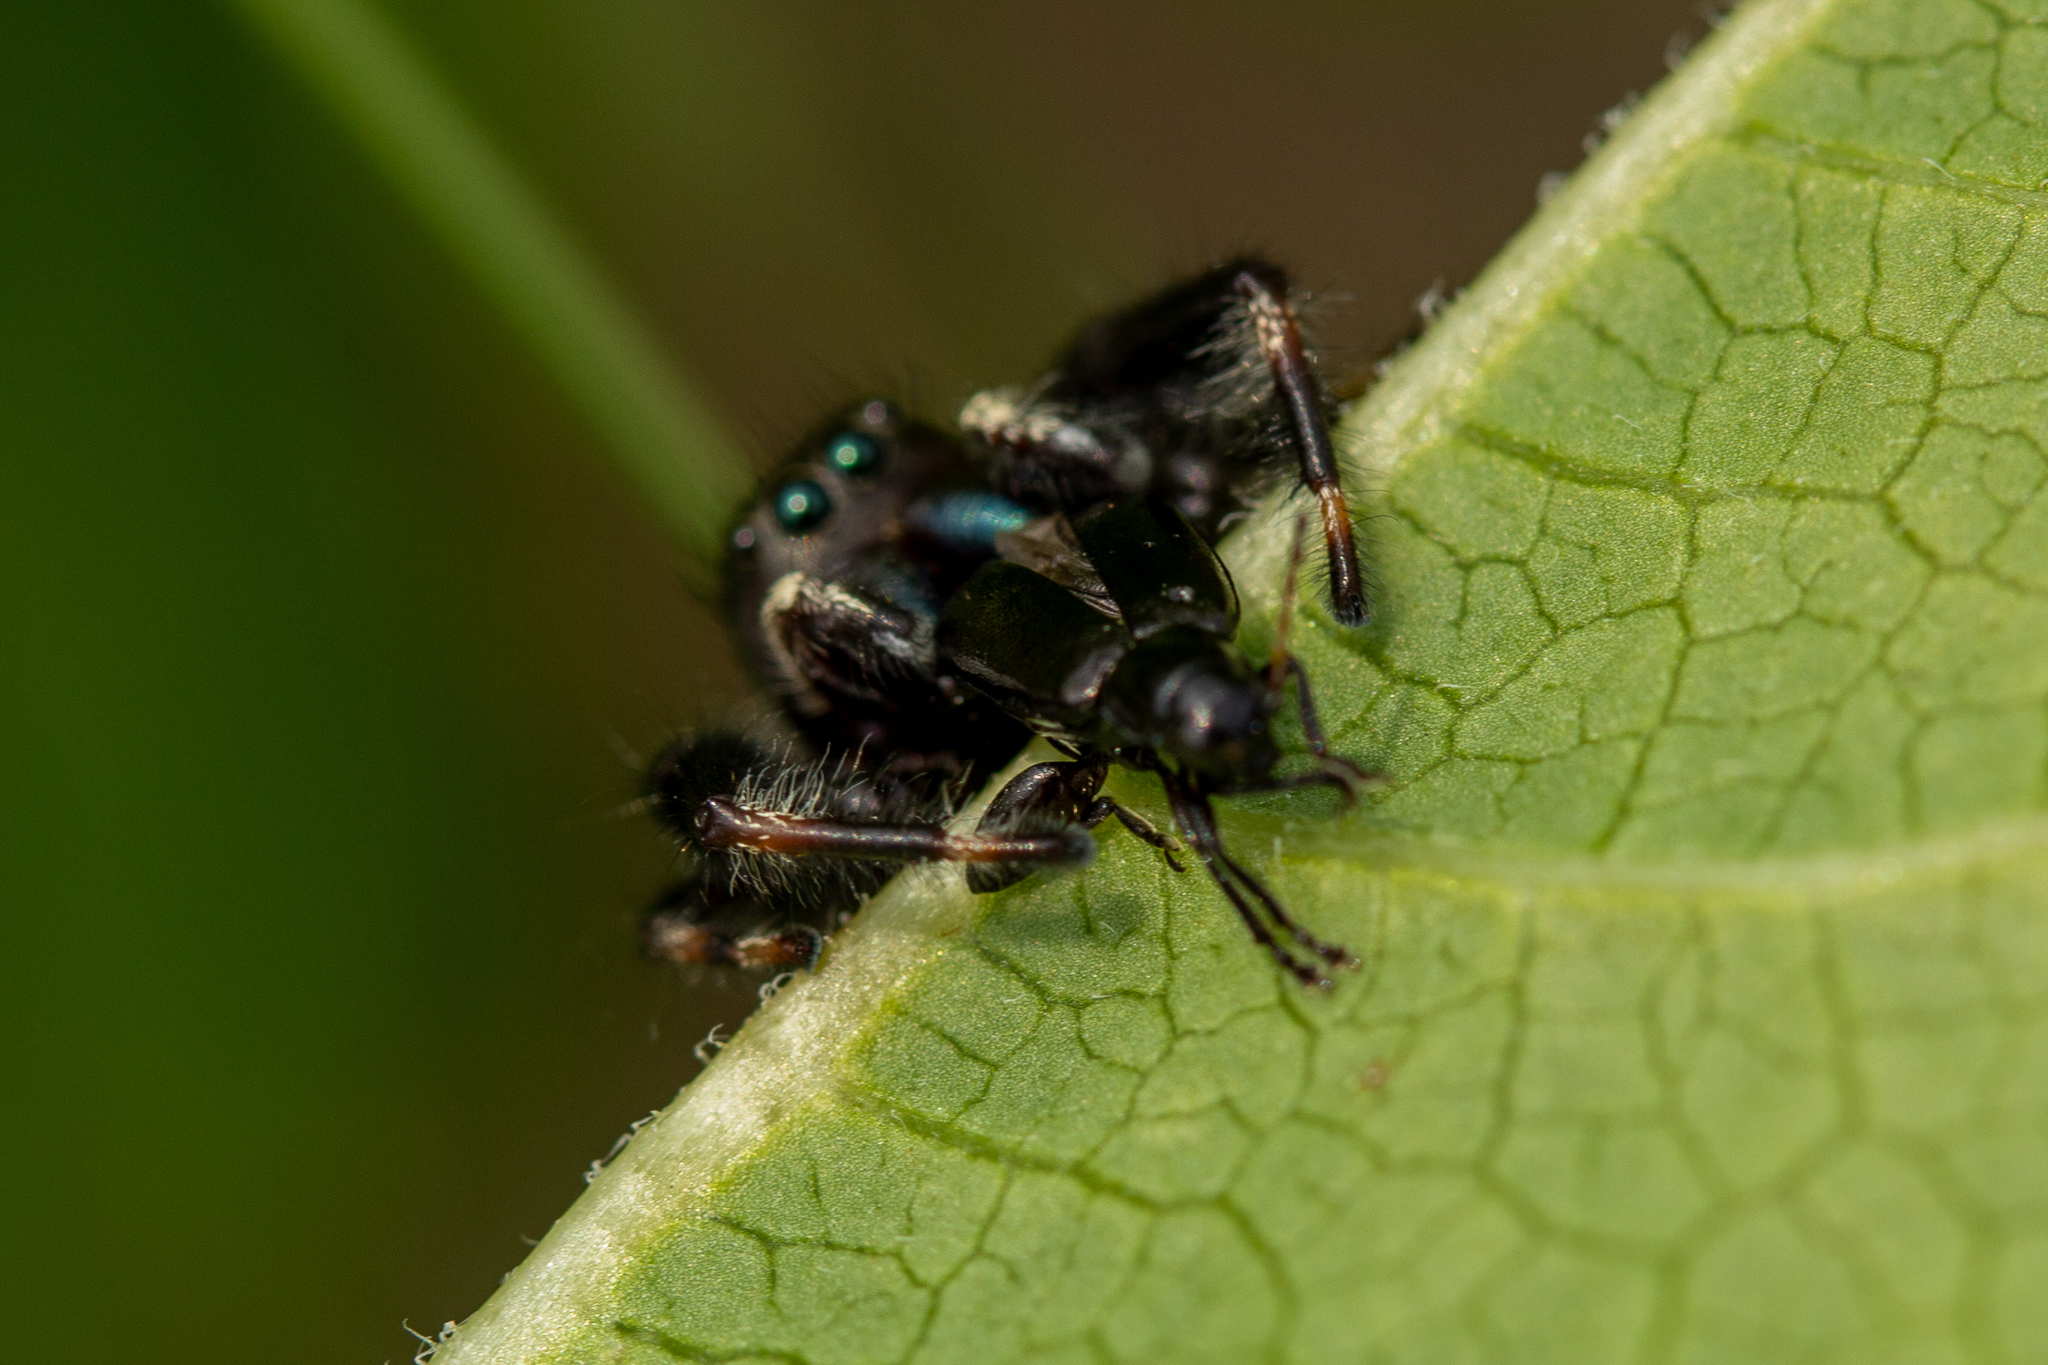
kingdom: Animalia
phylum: Arthropoda
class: Arachnida
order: Araneae
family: Salticidae
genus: Phidippus
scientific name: Phidippus clarus
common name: Brilliant jumping spider
